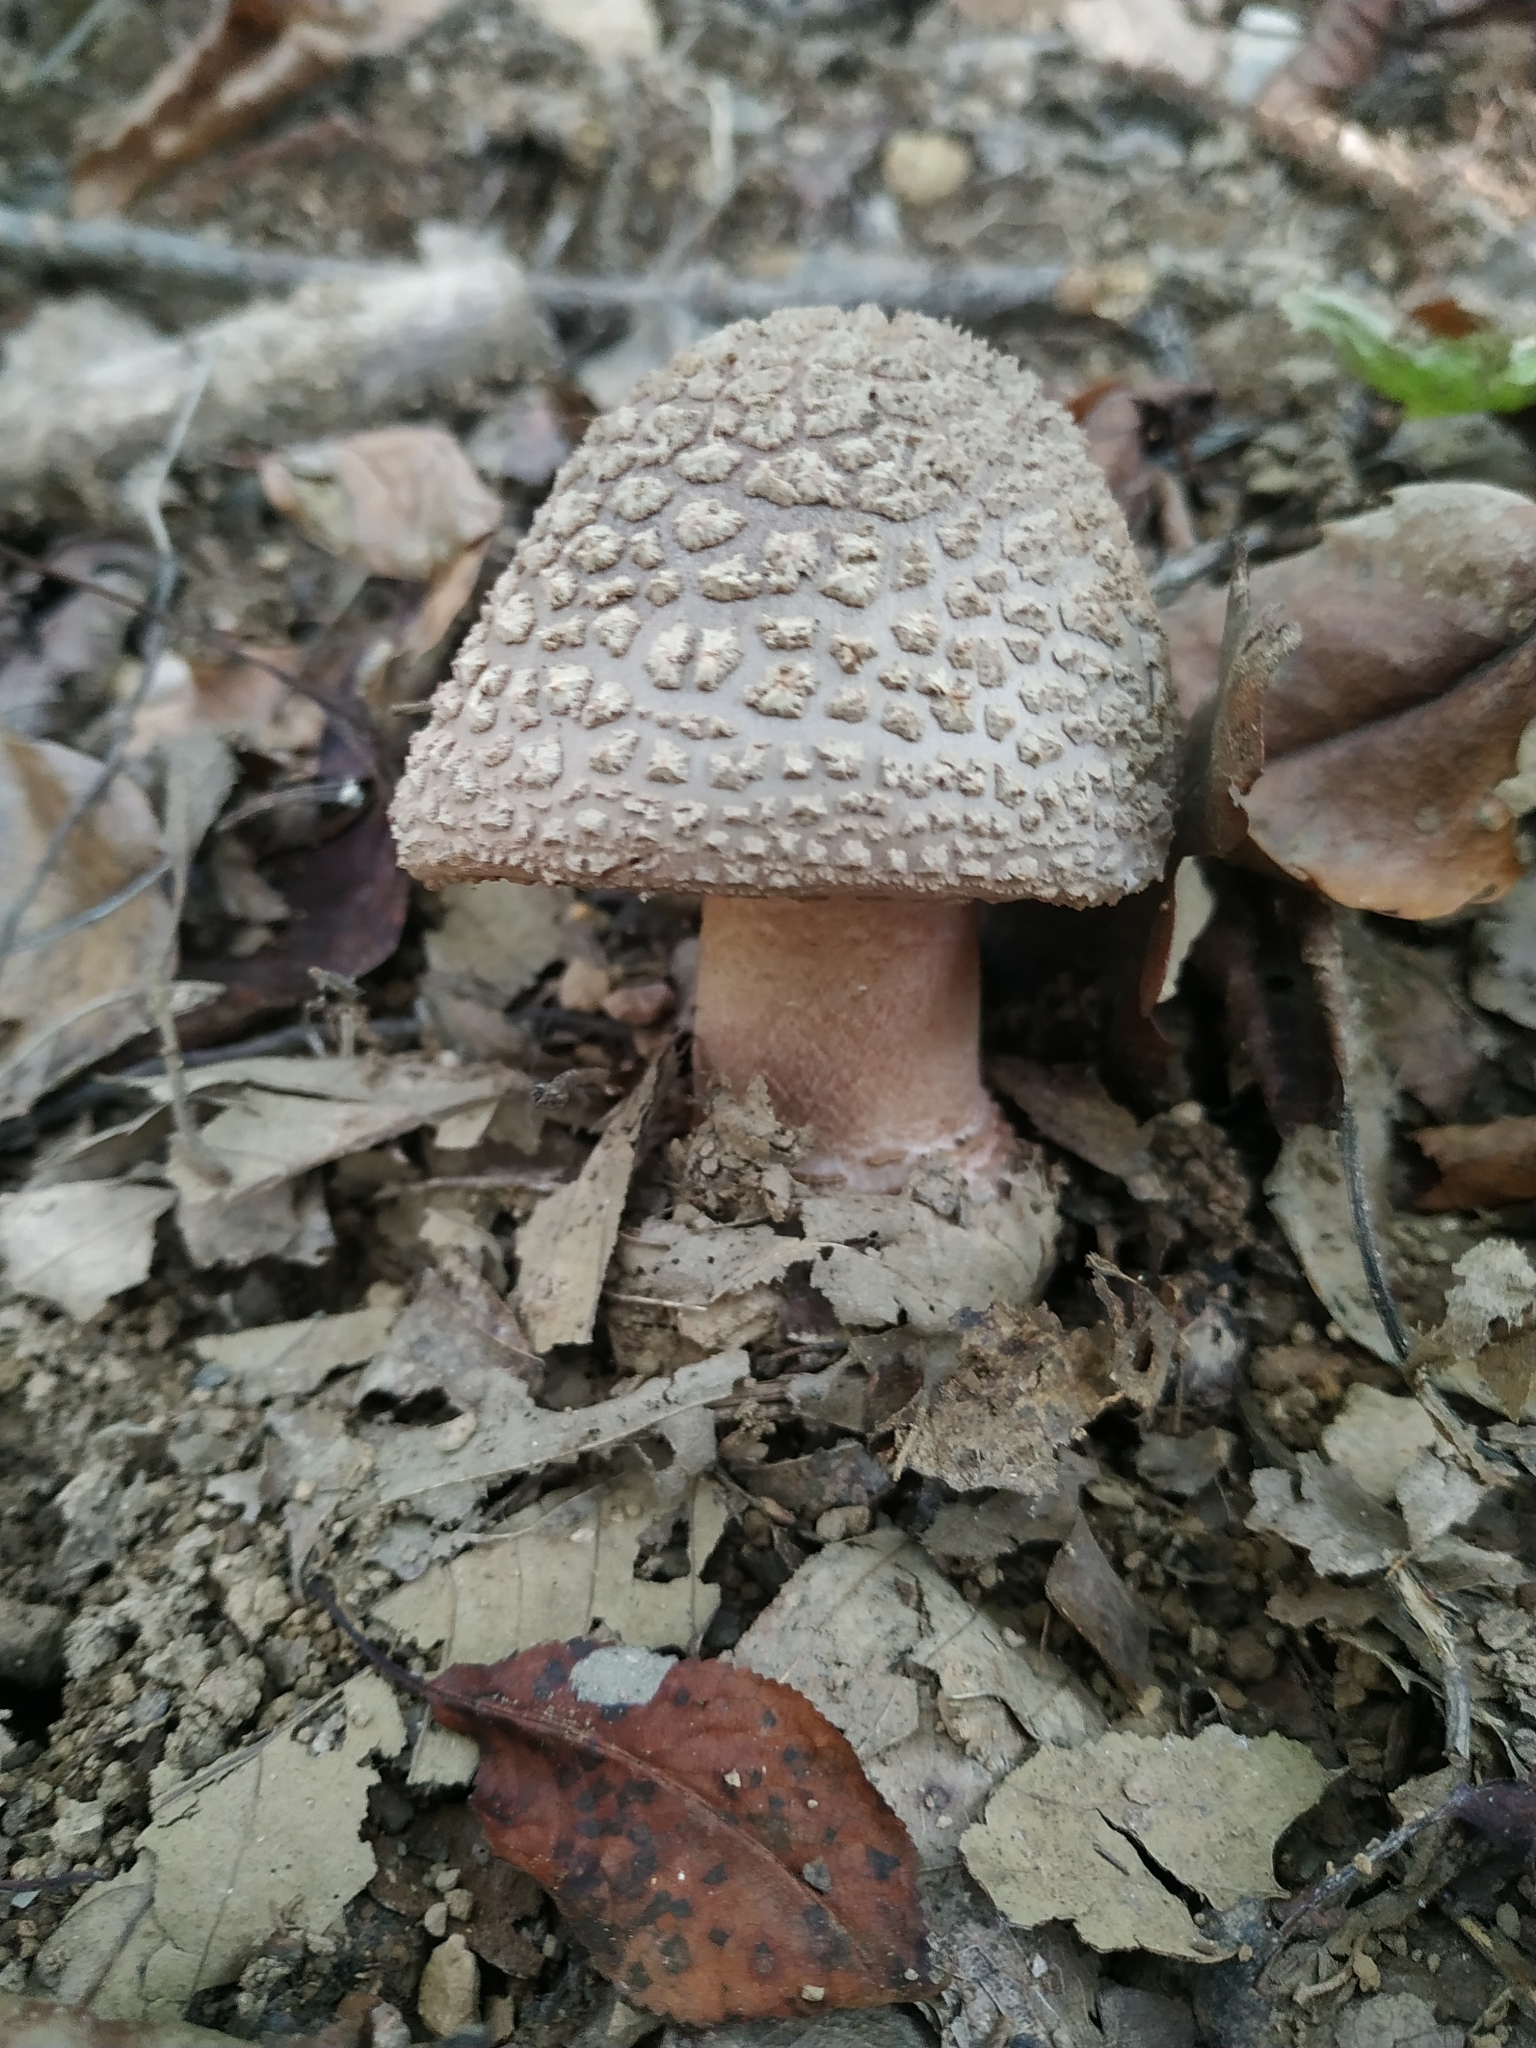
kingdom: Fungi
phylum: Basidiomycota
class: Agaricomycetes
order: Agaricales
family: Amanitaceae
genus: Amanita
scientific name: Amanita rubescens
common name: Blusher
